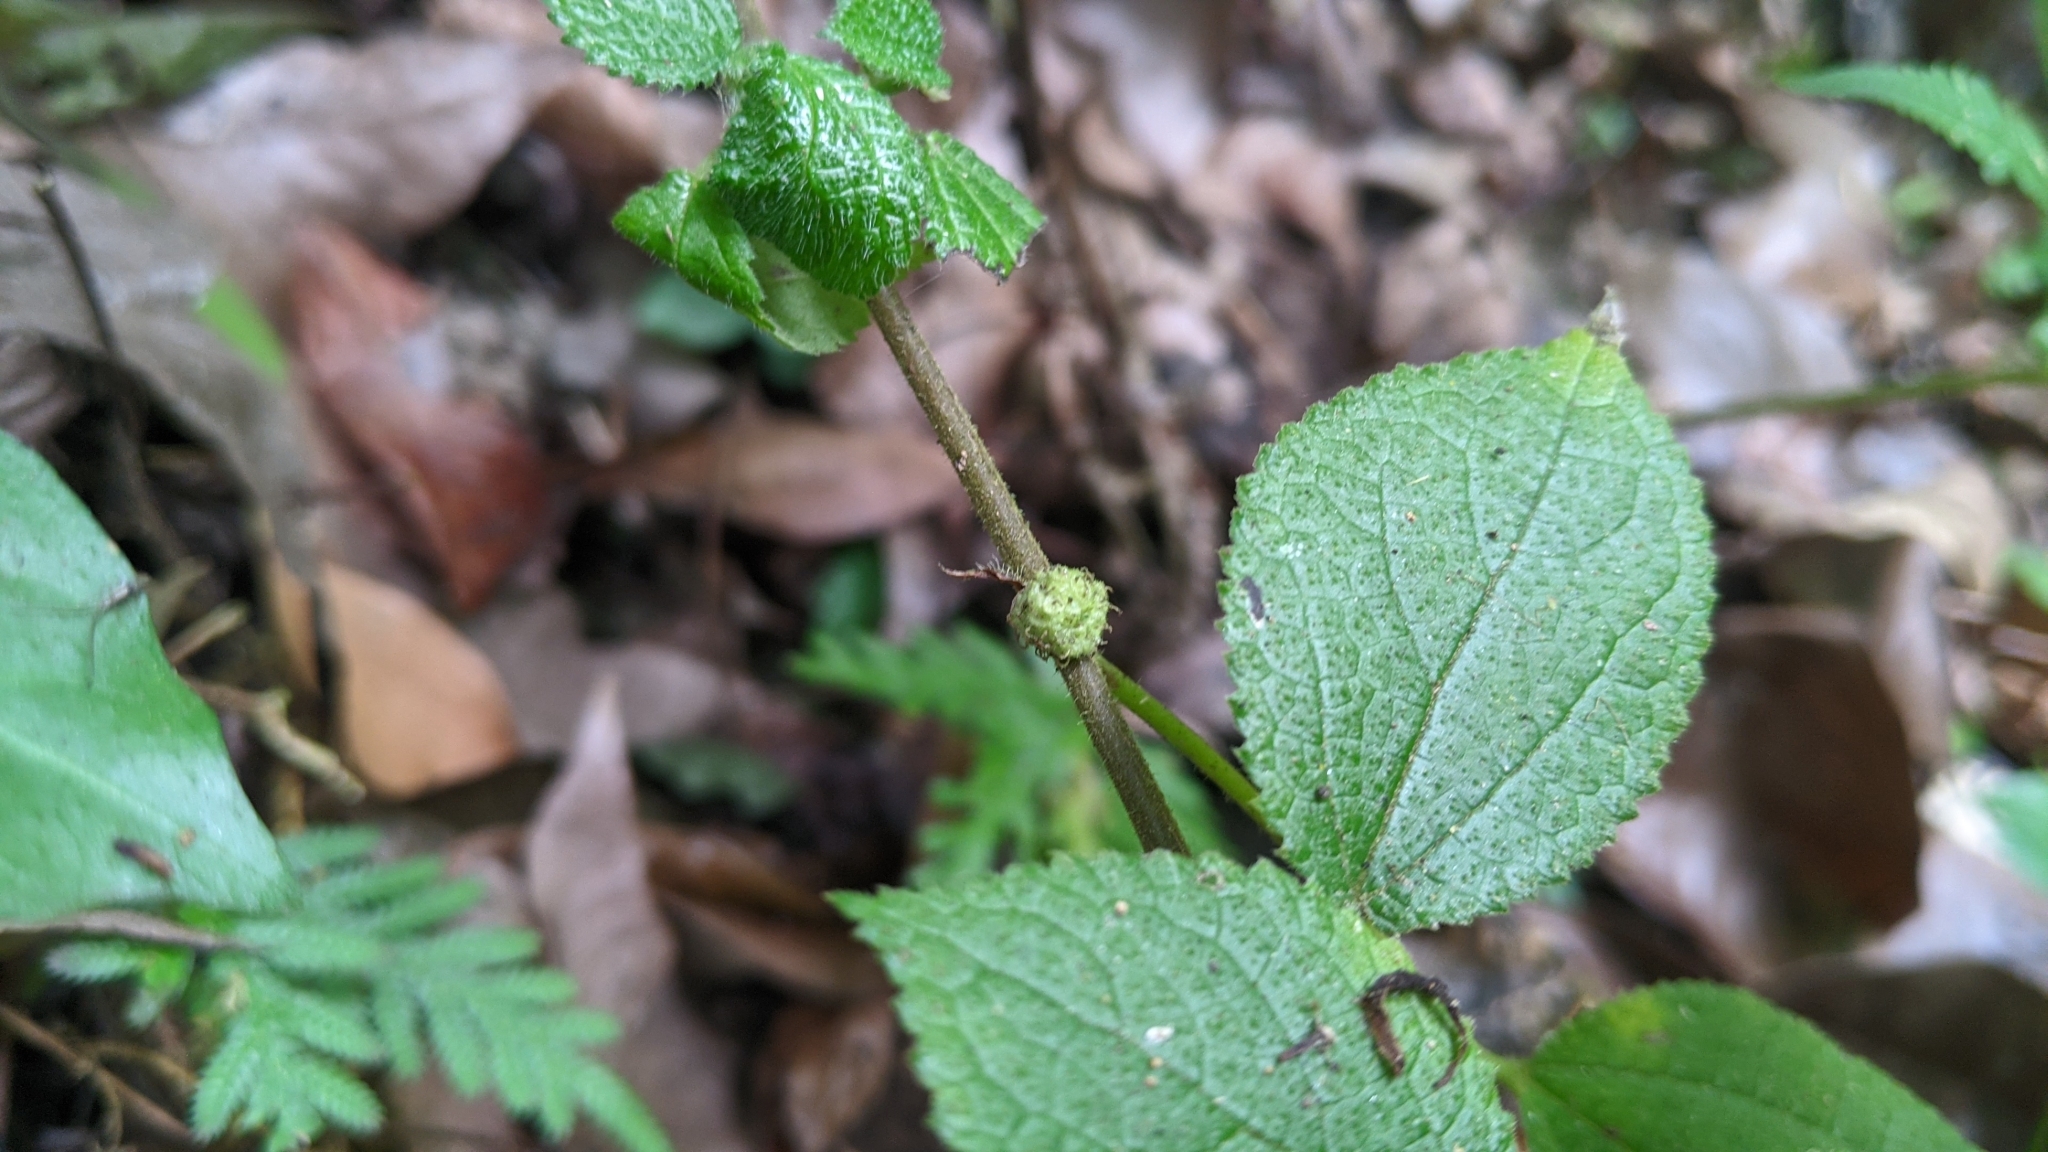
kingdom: Plantae
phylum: Tracheophyta
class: Magnoliopsida
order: Rosales
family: Urticaceae
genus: Boehmeria
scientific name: Boehmeria pilosiuscula
